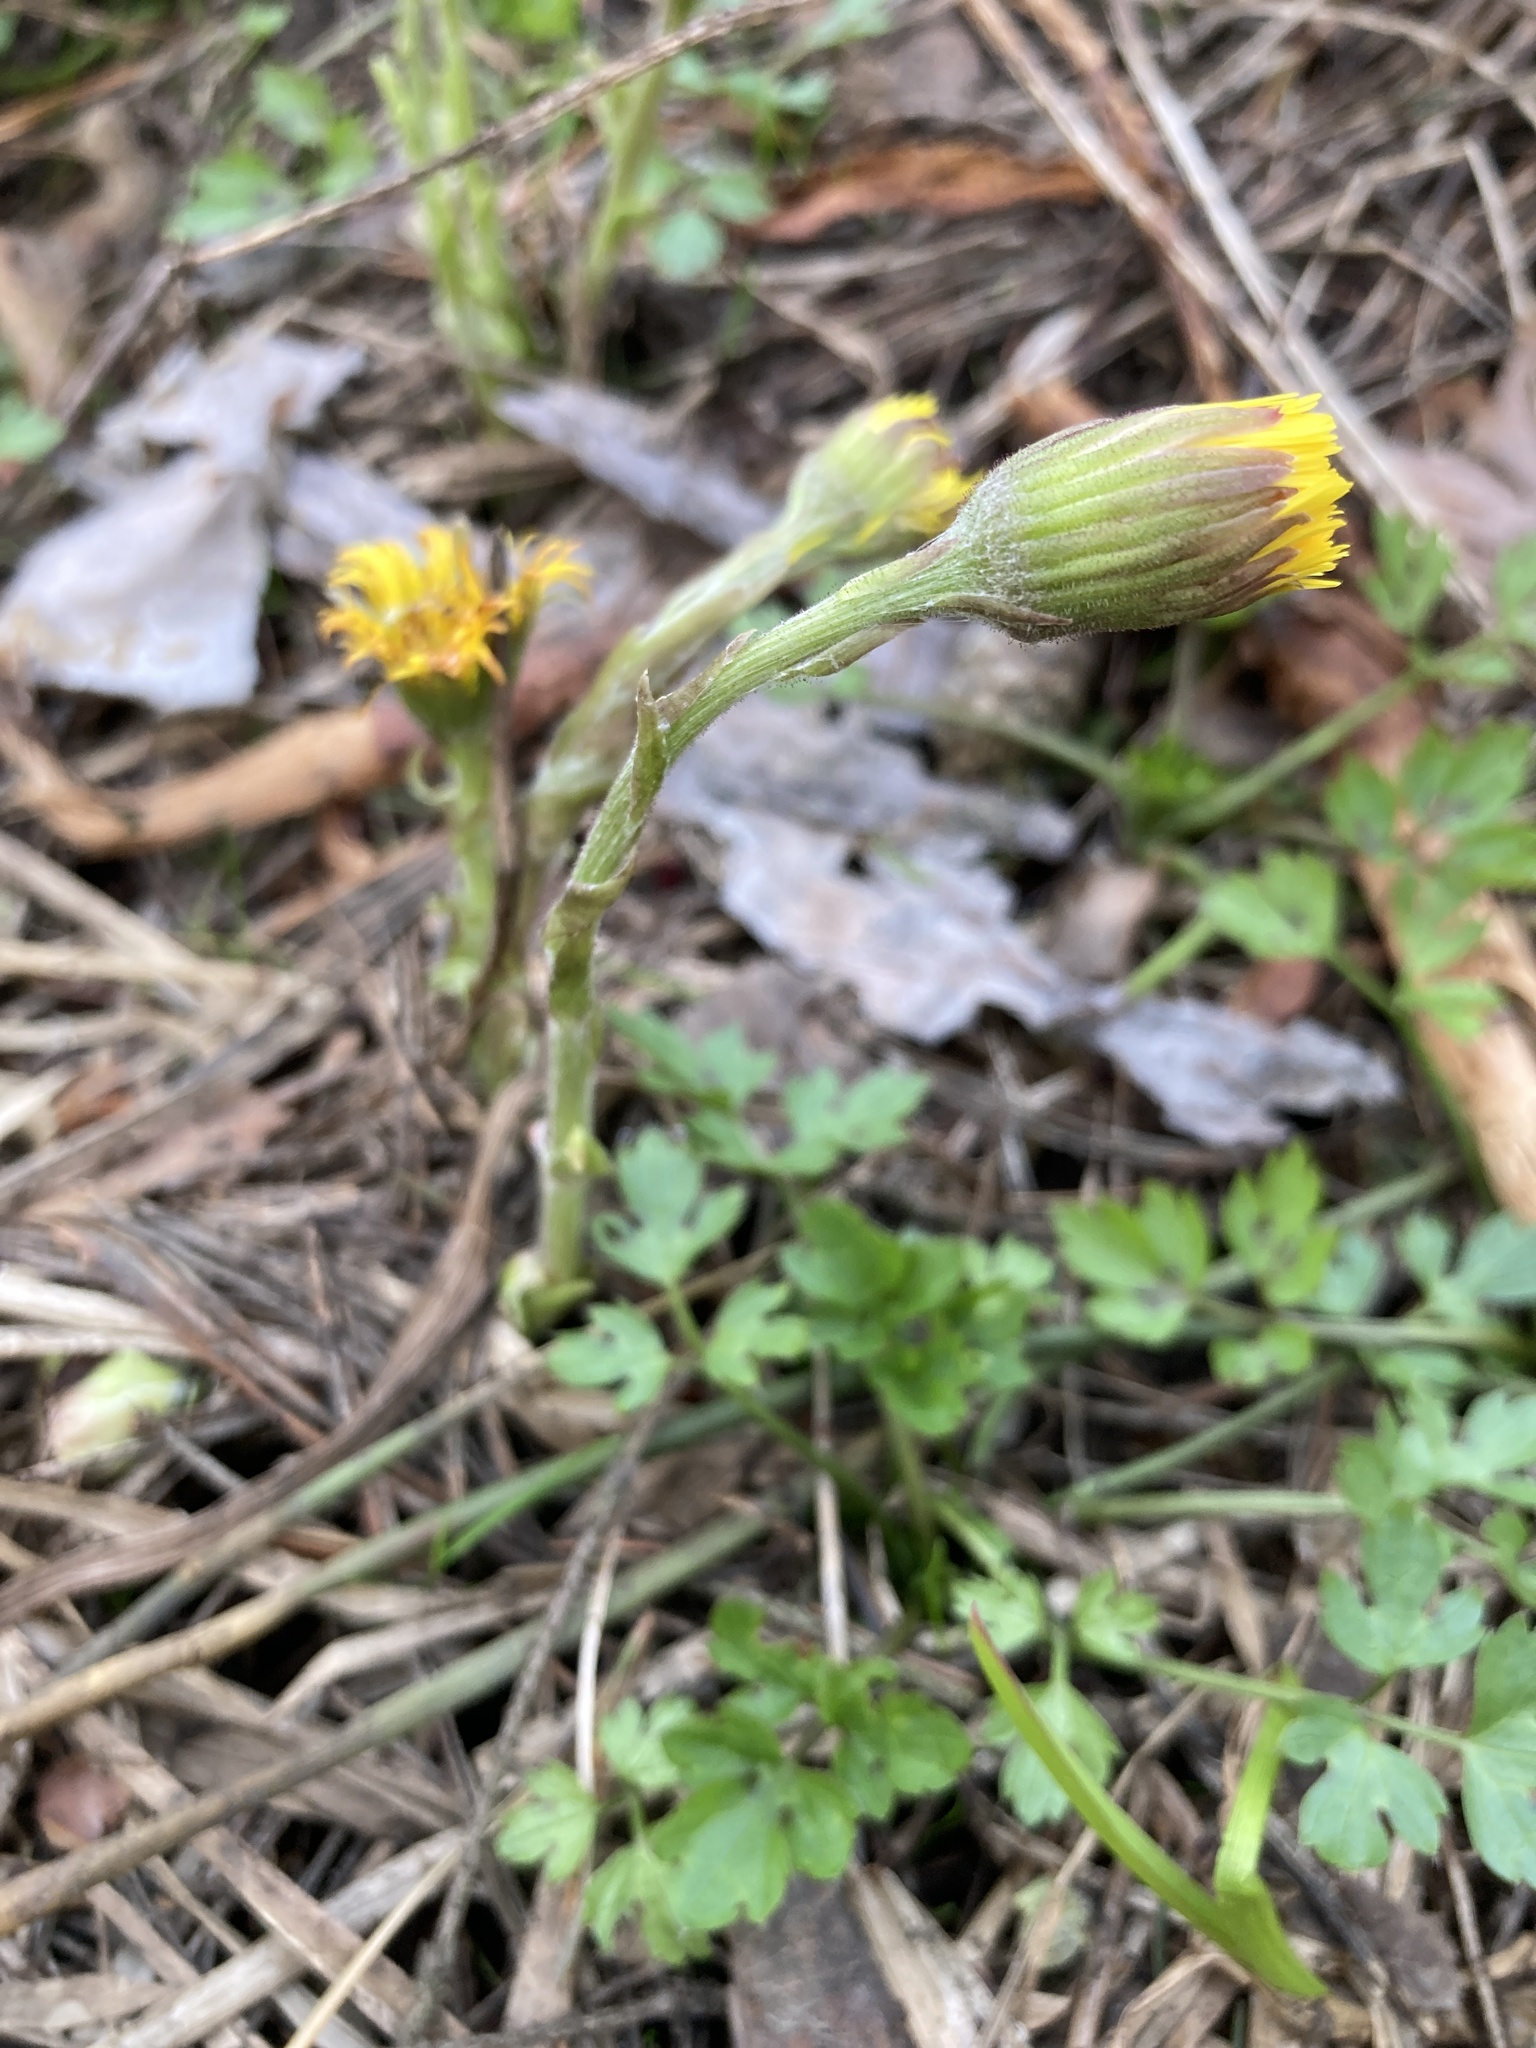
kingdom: Plantae
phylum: Tracheophyta
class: Magnoliopsida
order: Asterales
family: Asteraceae
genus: Tussilago
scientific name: Tussilago farfara
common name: Coltsfoot
